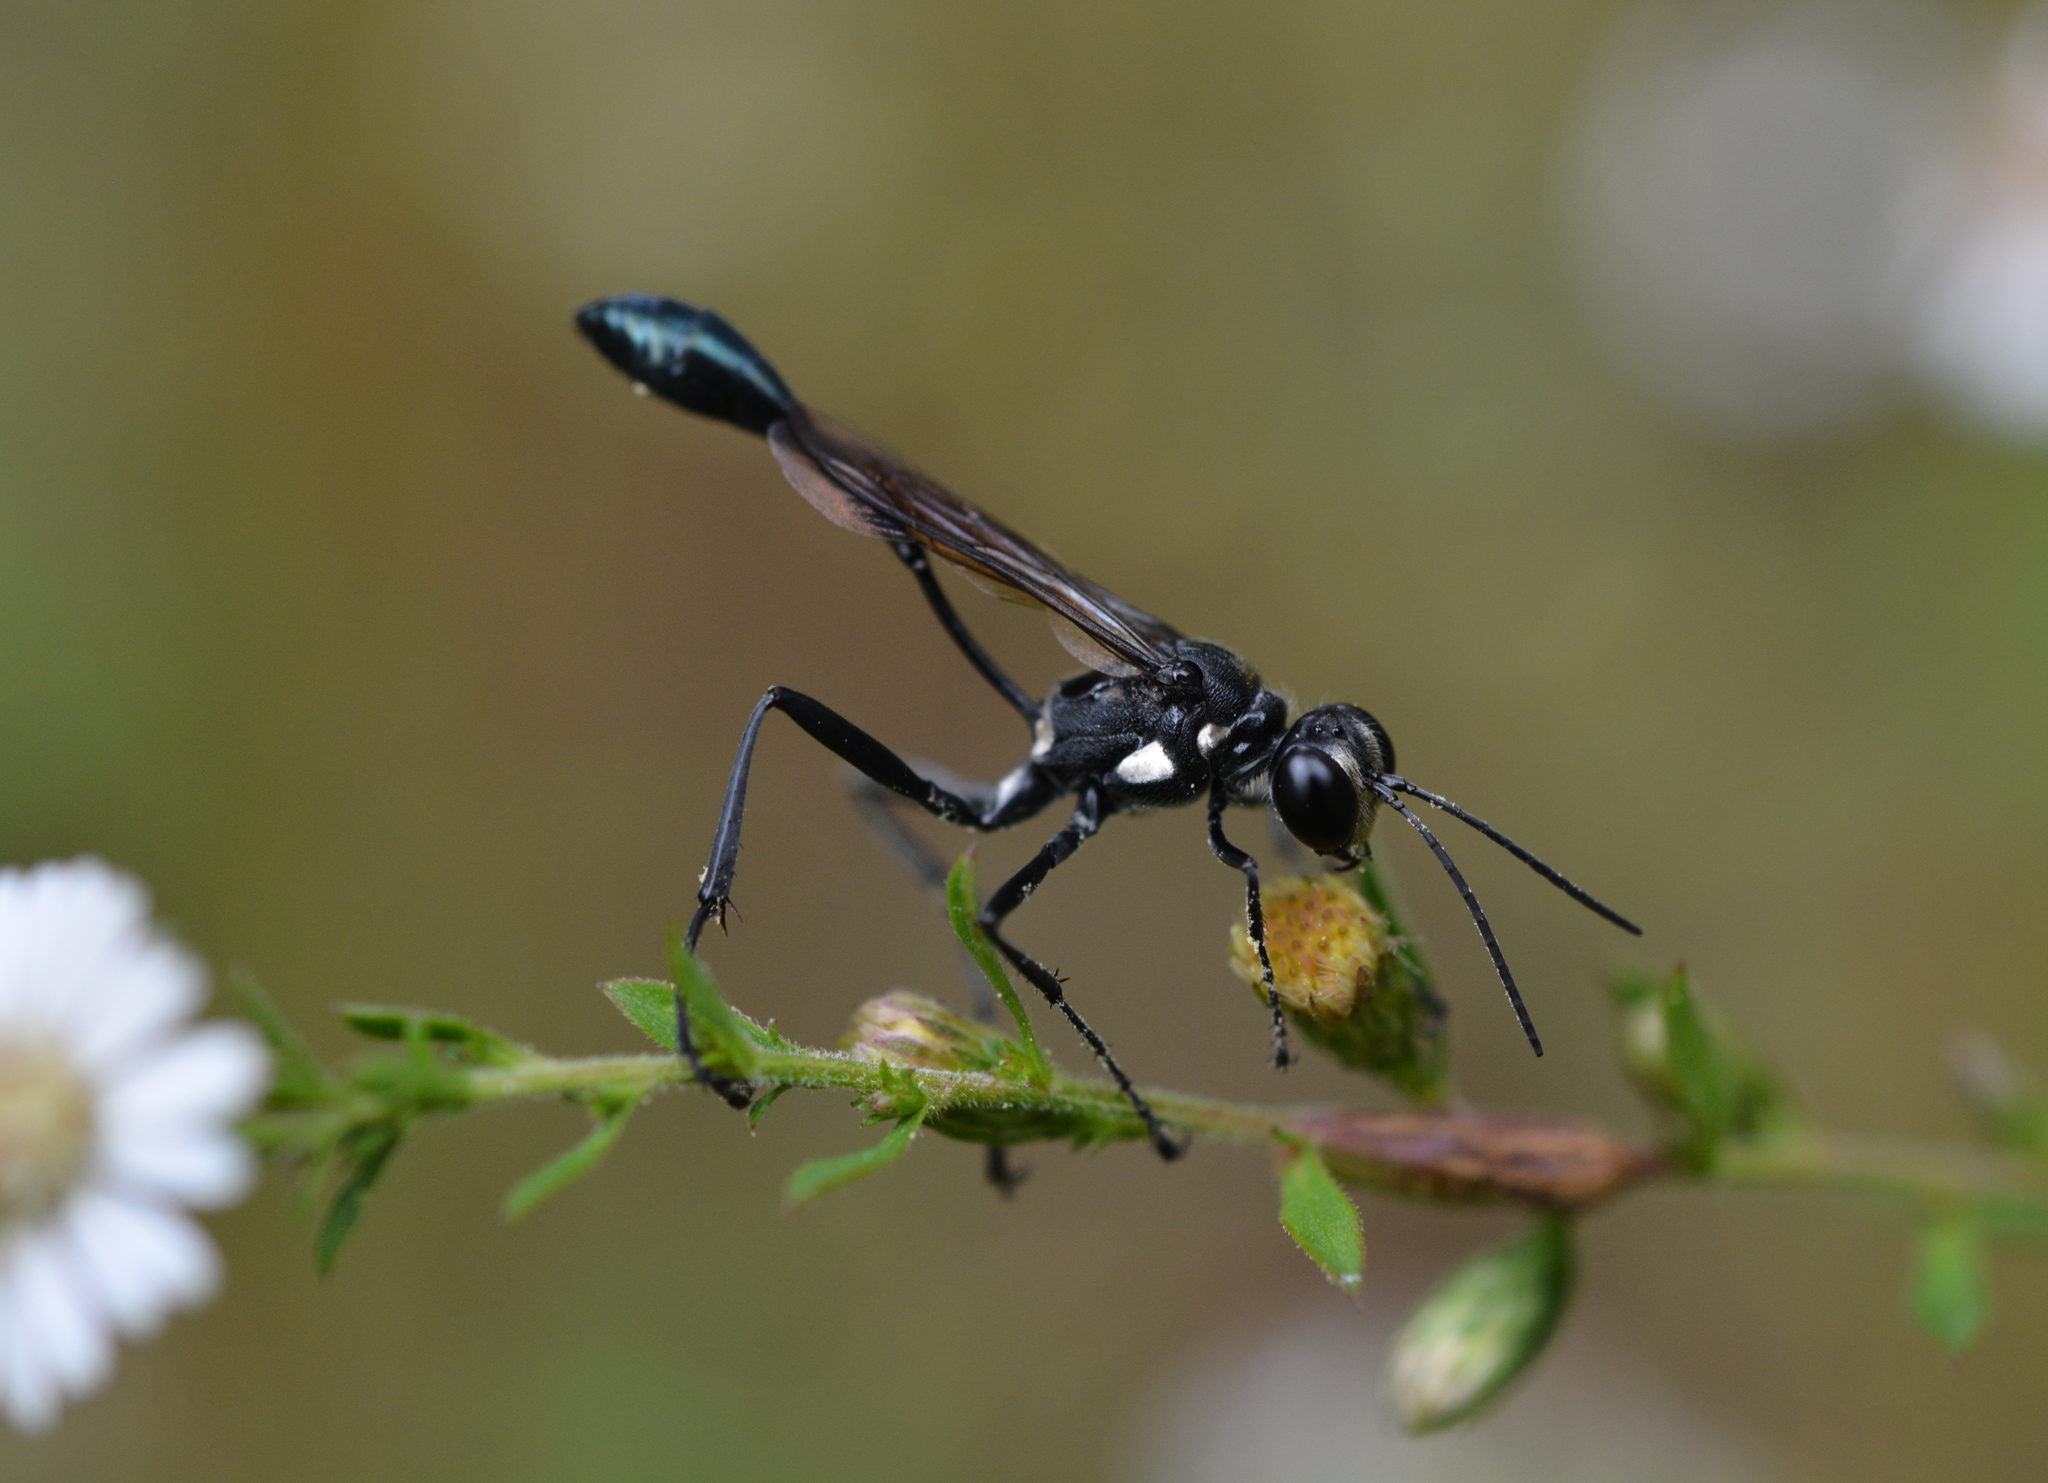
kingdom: Animalia
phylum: Arthropoda
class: Insecta
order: Hymenoptera
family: Sphecidae
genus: Eremnophila
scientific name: Eremnophila aureonotata
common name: Gold-marked thread-waisted wasp
